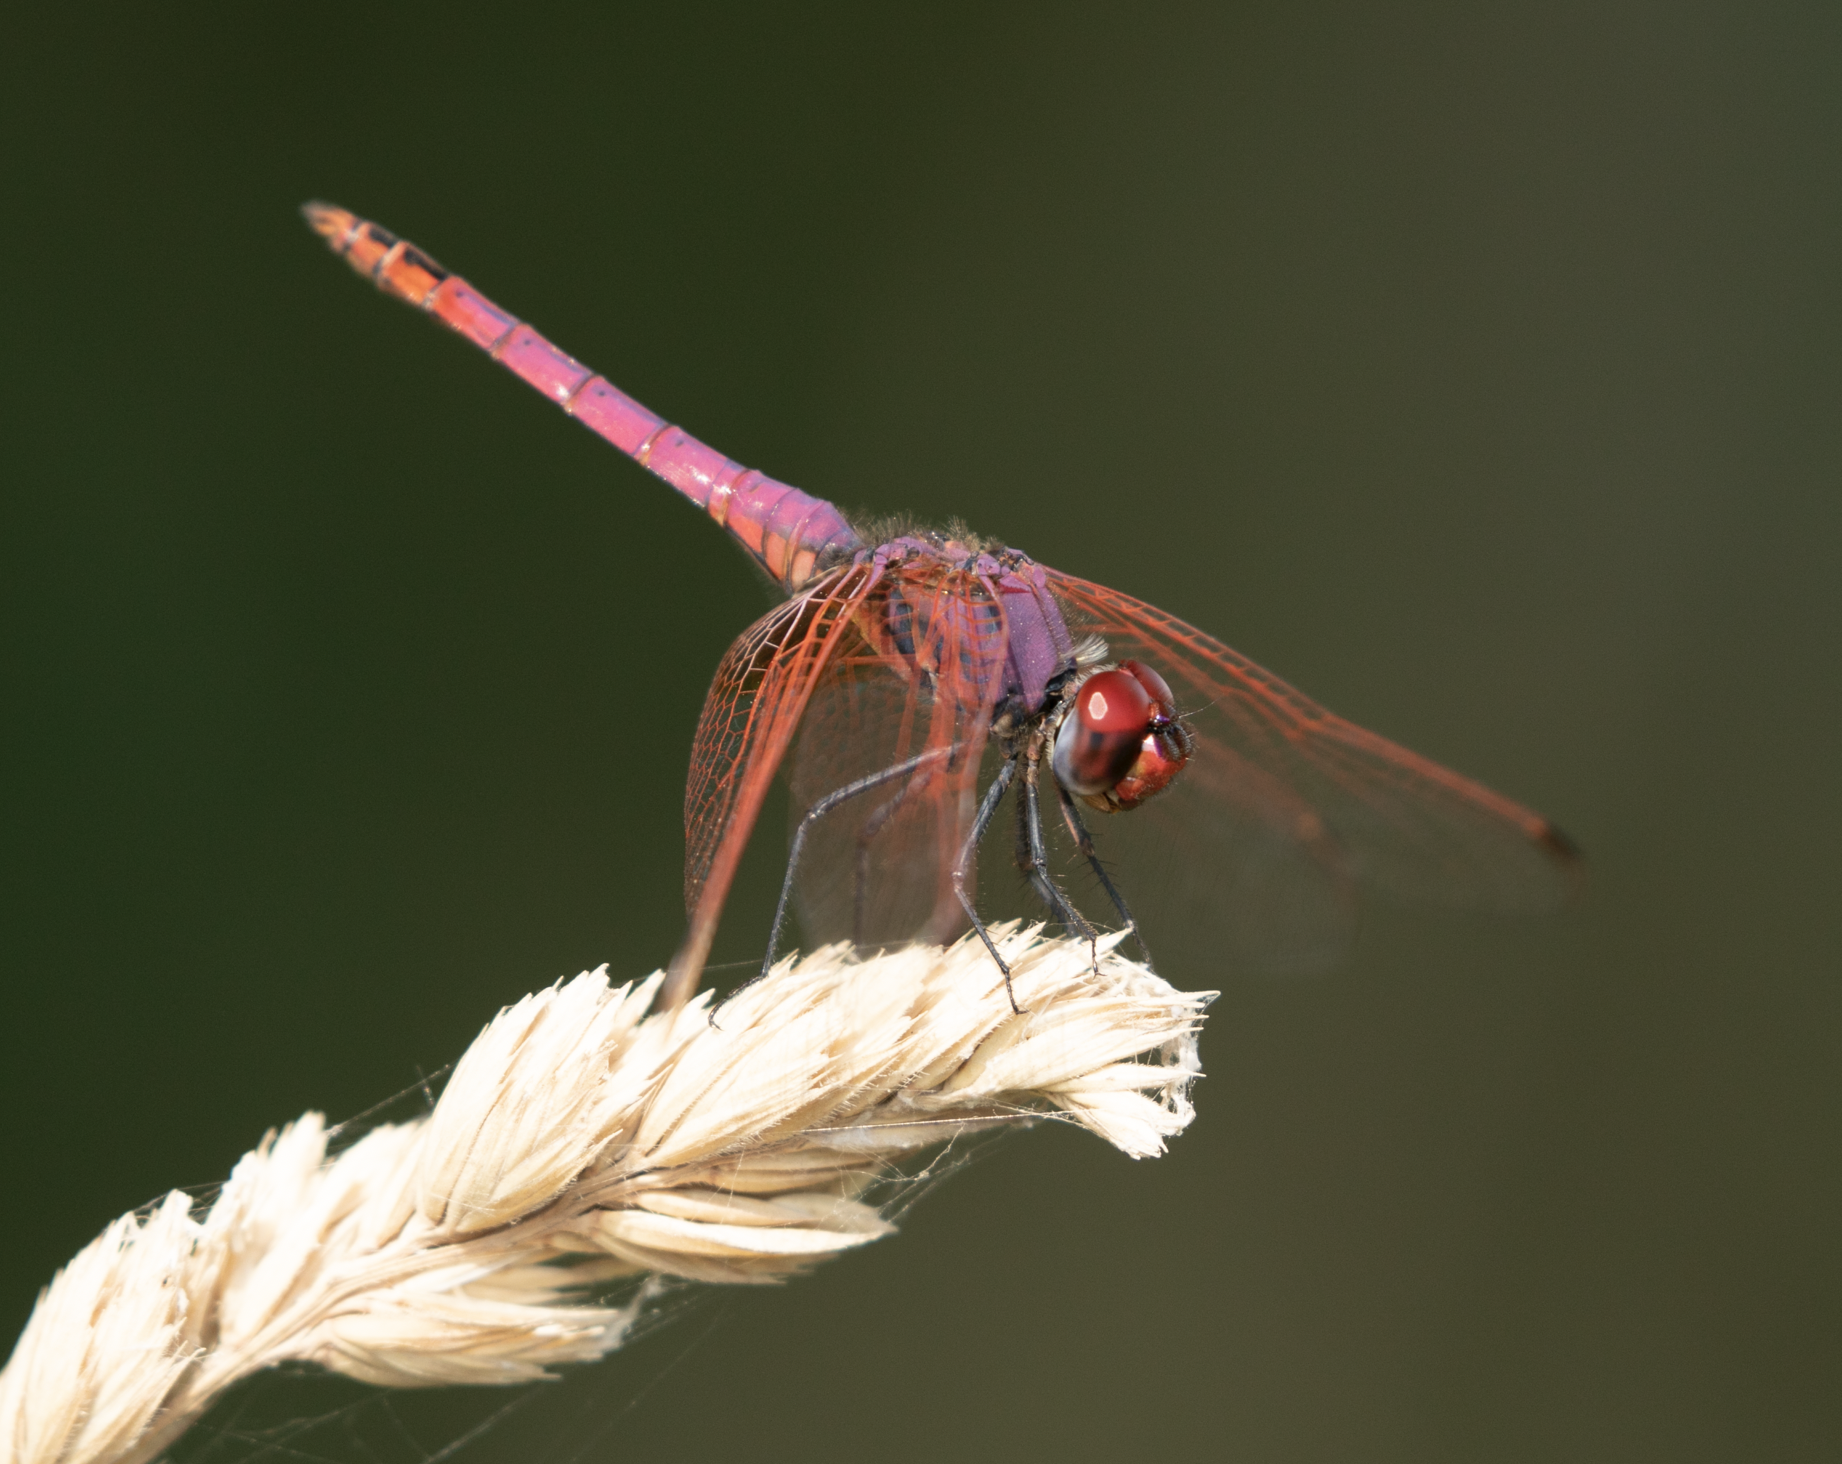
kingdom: Animalia
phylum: Arthropoda
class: Insecta
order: Odonata
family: Libellulidae
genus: Trithemis
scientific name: Trithemis annulata
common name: Violet dropwing
